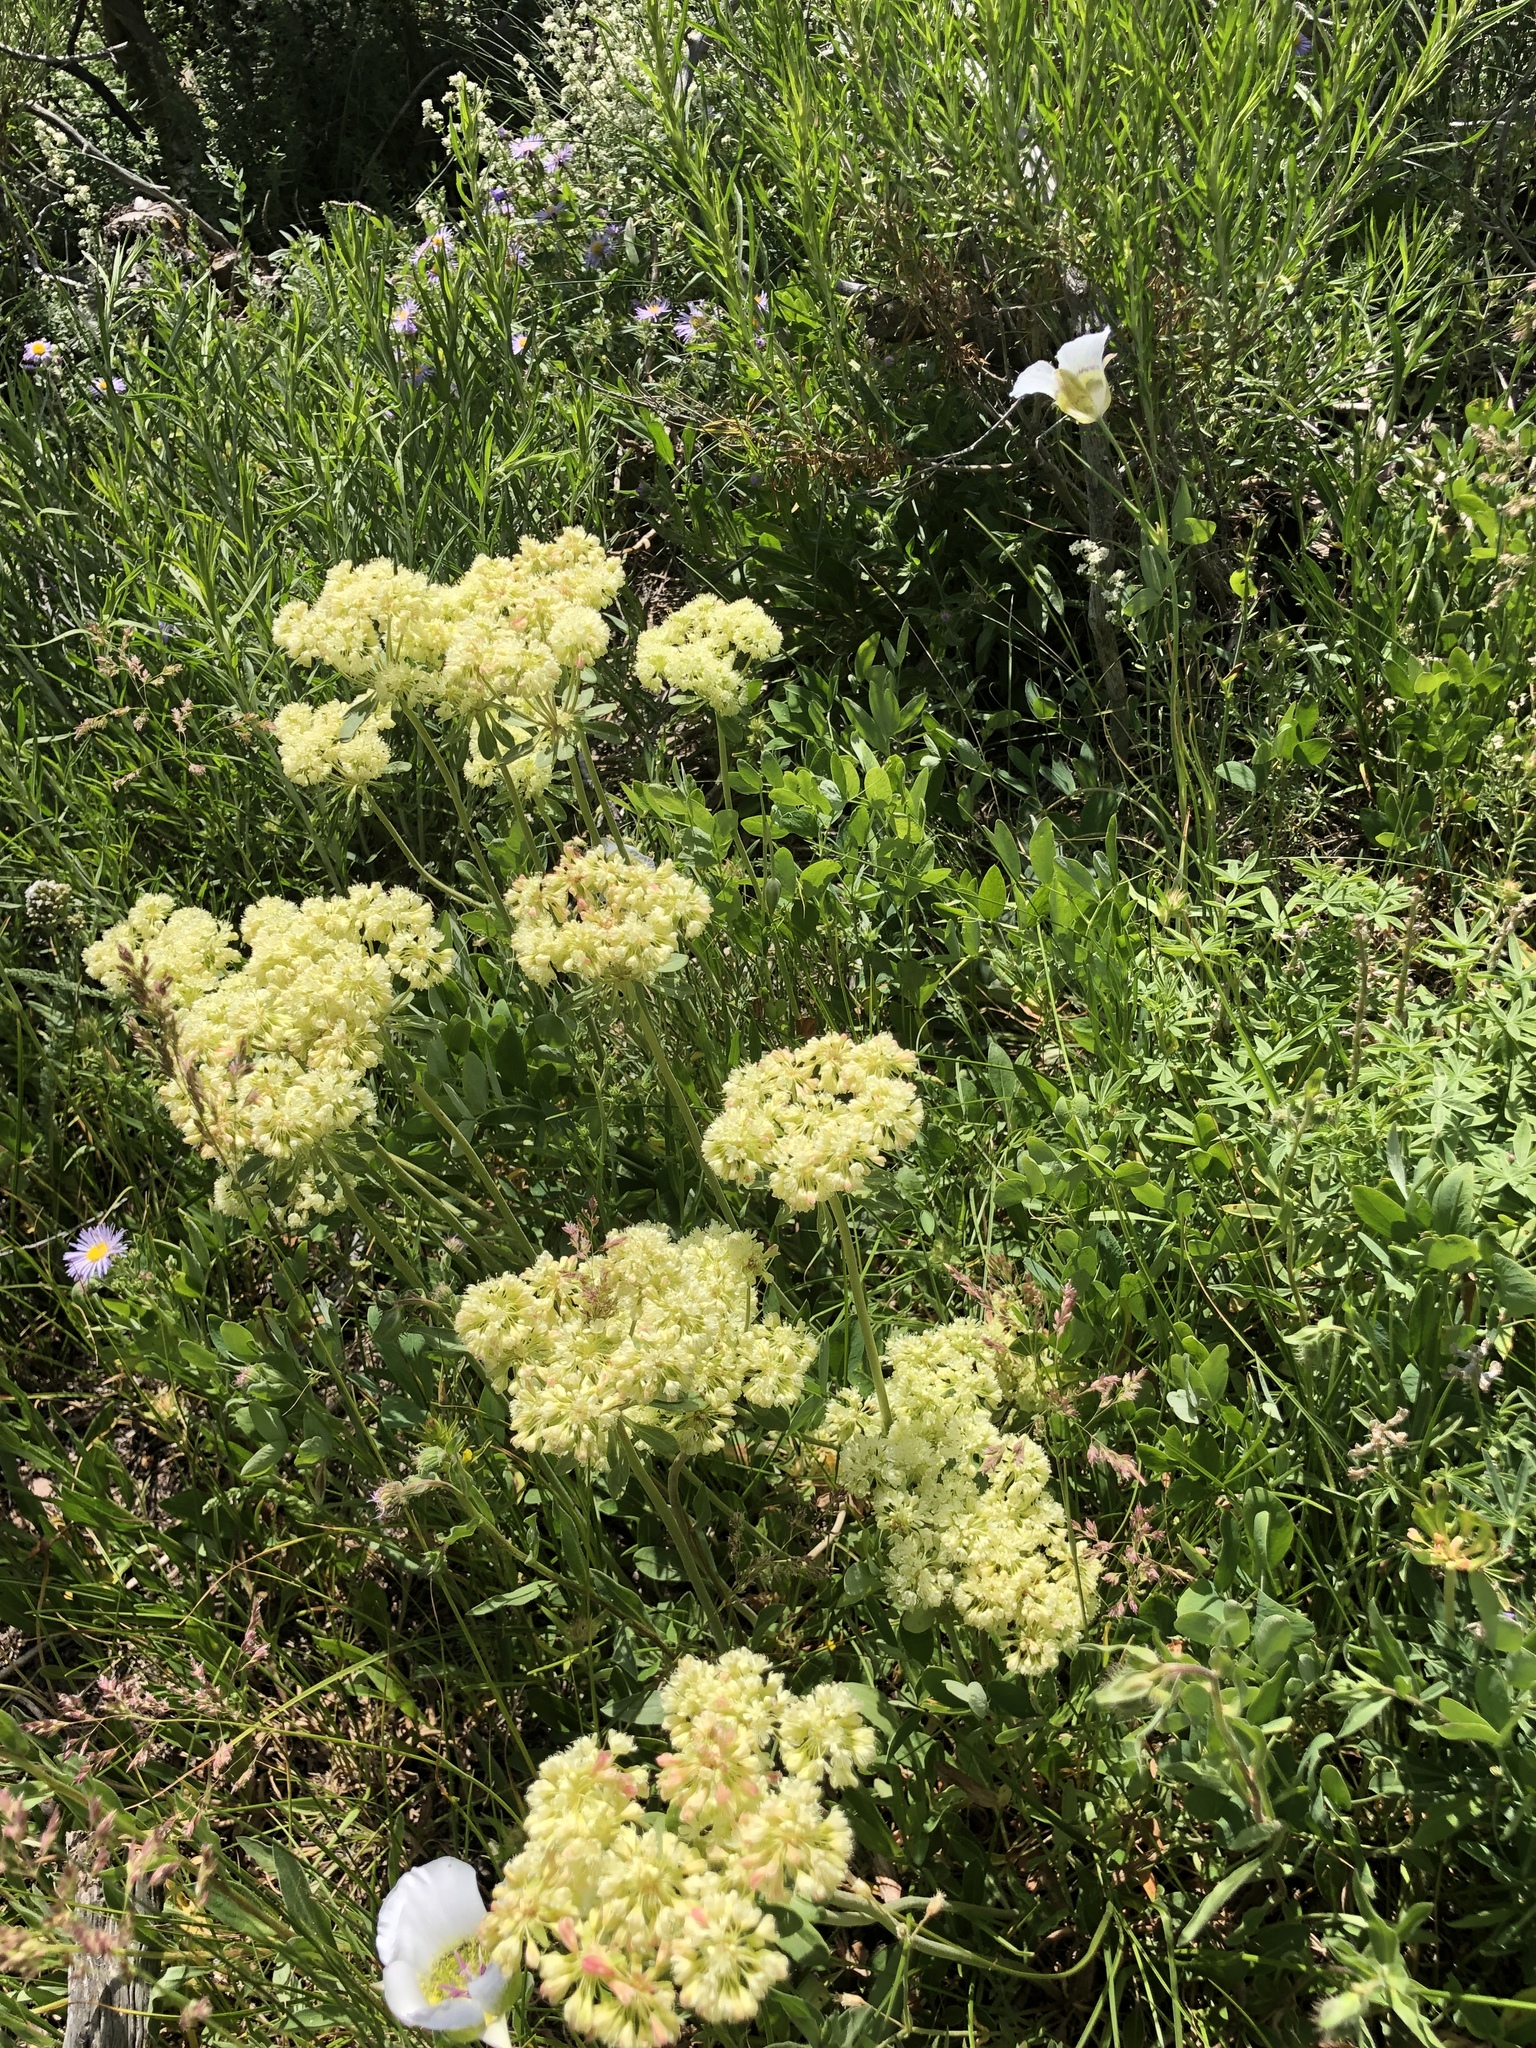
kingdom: Plantae
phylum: Tracheophyta
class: Magnoliopsida
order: Caryophyllales
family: Polygonaceae
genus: Eriogonum
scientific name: Eriogonum umbellatum
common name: Sulfur-buckwheat
